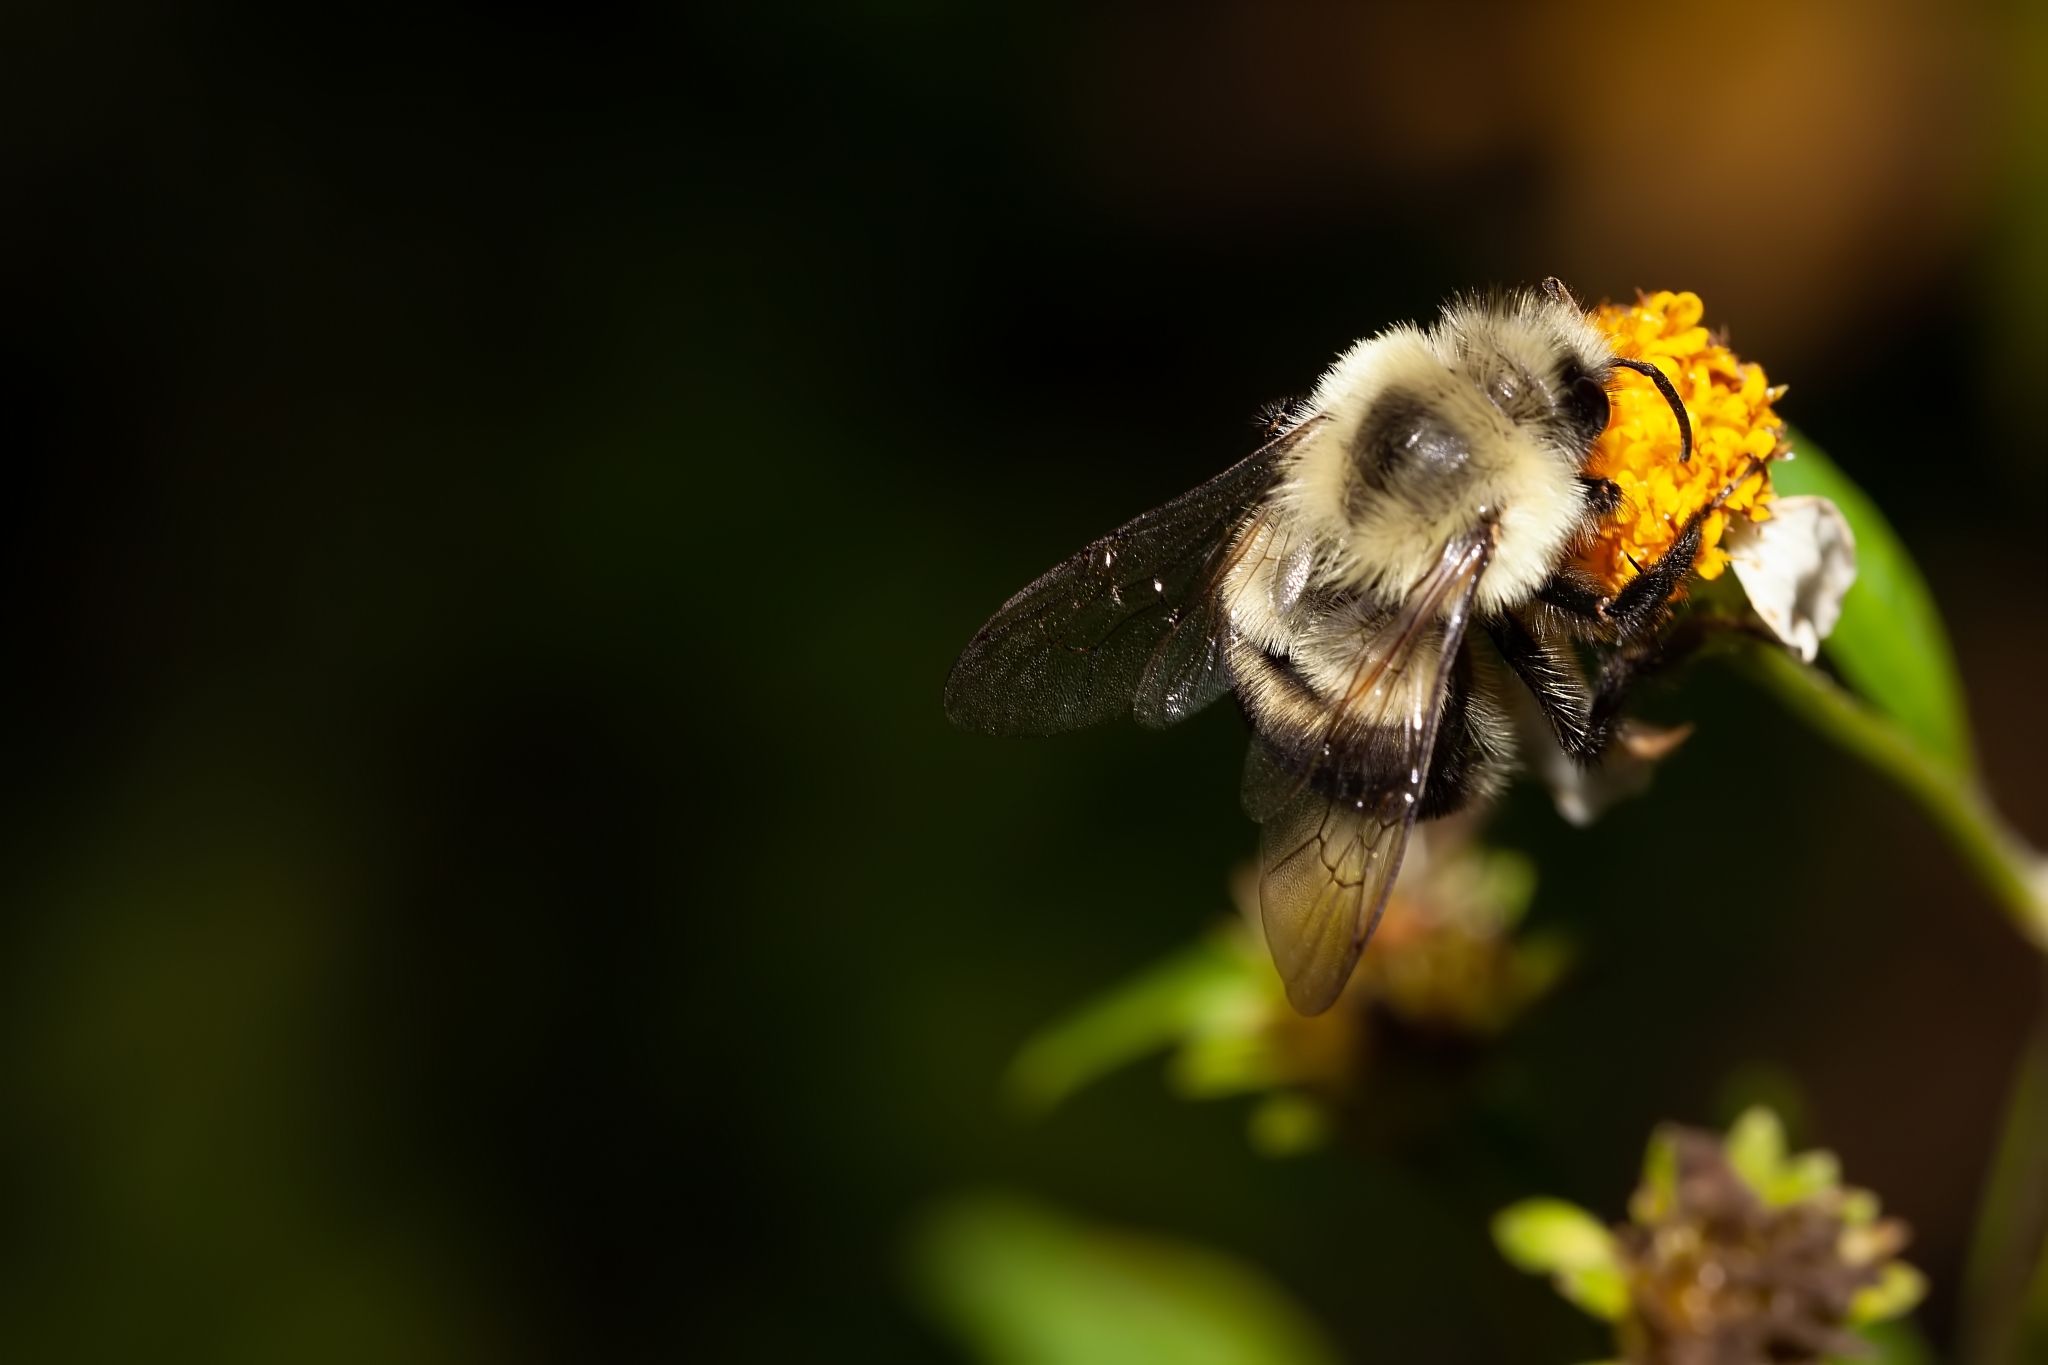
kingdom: Animalia
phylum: Arthropoda
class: Insecta
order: Hymenoptera
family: Apidae
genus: Bombus
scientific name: Bombus impatiens
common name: Common eastern bumble bee
